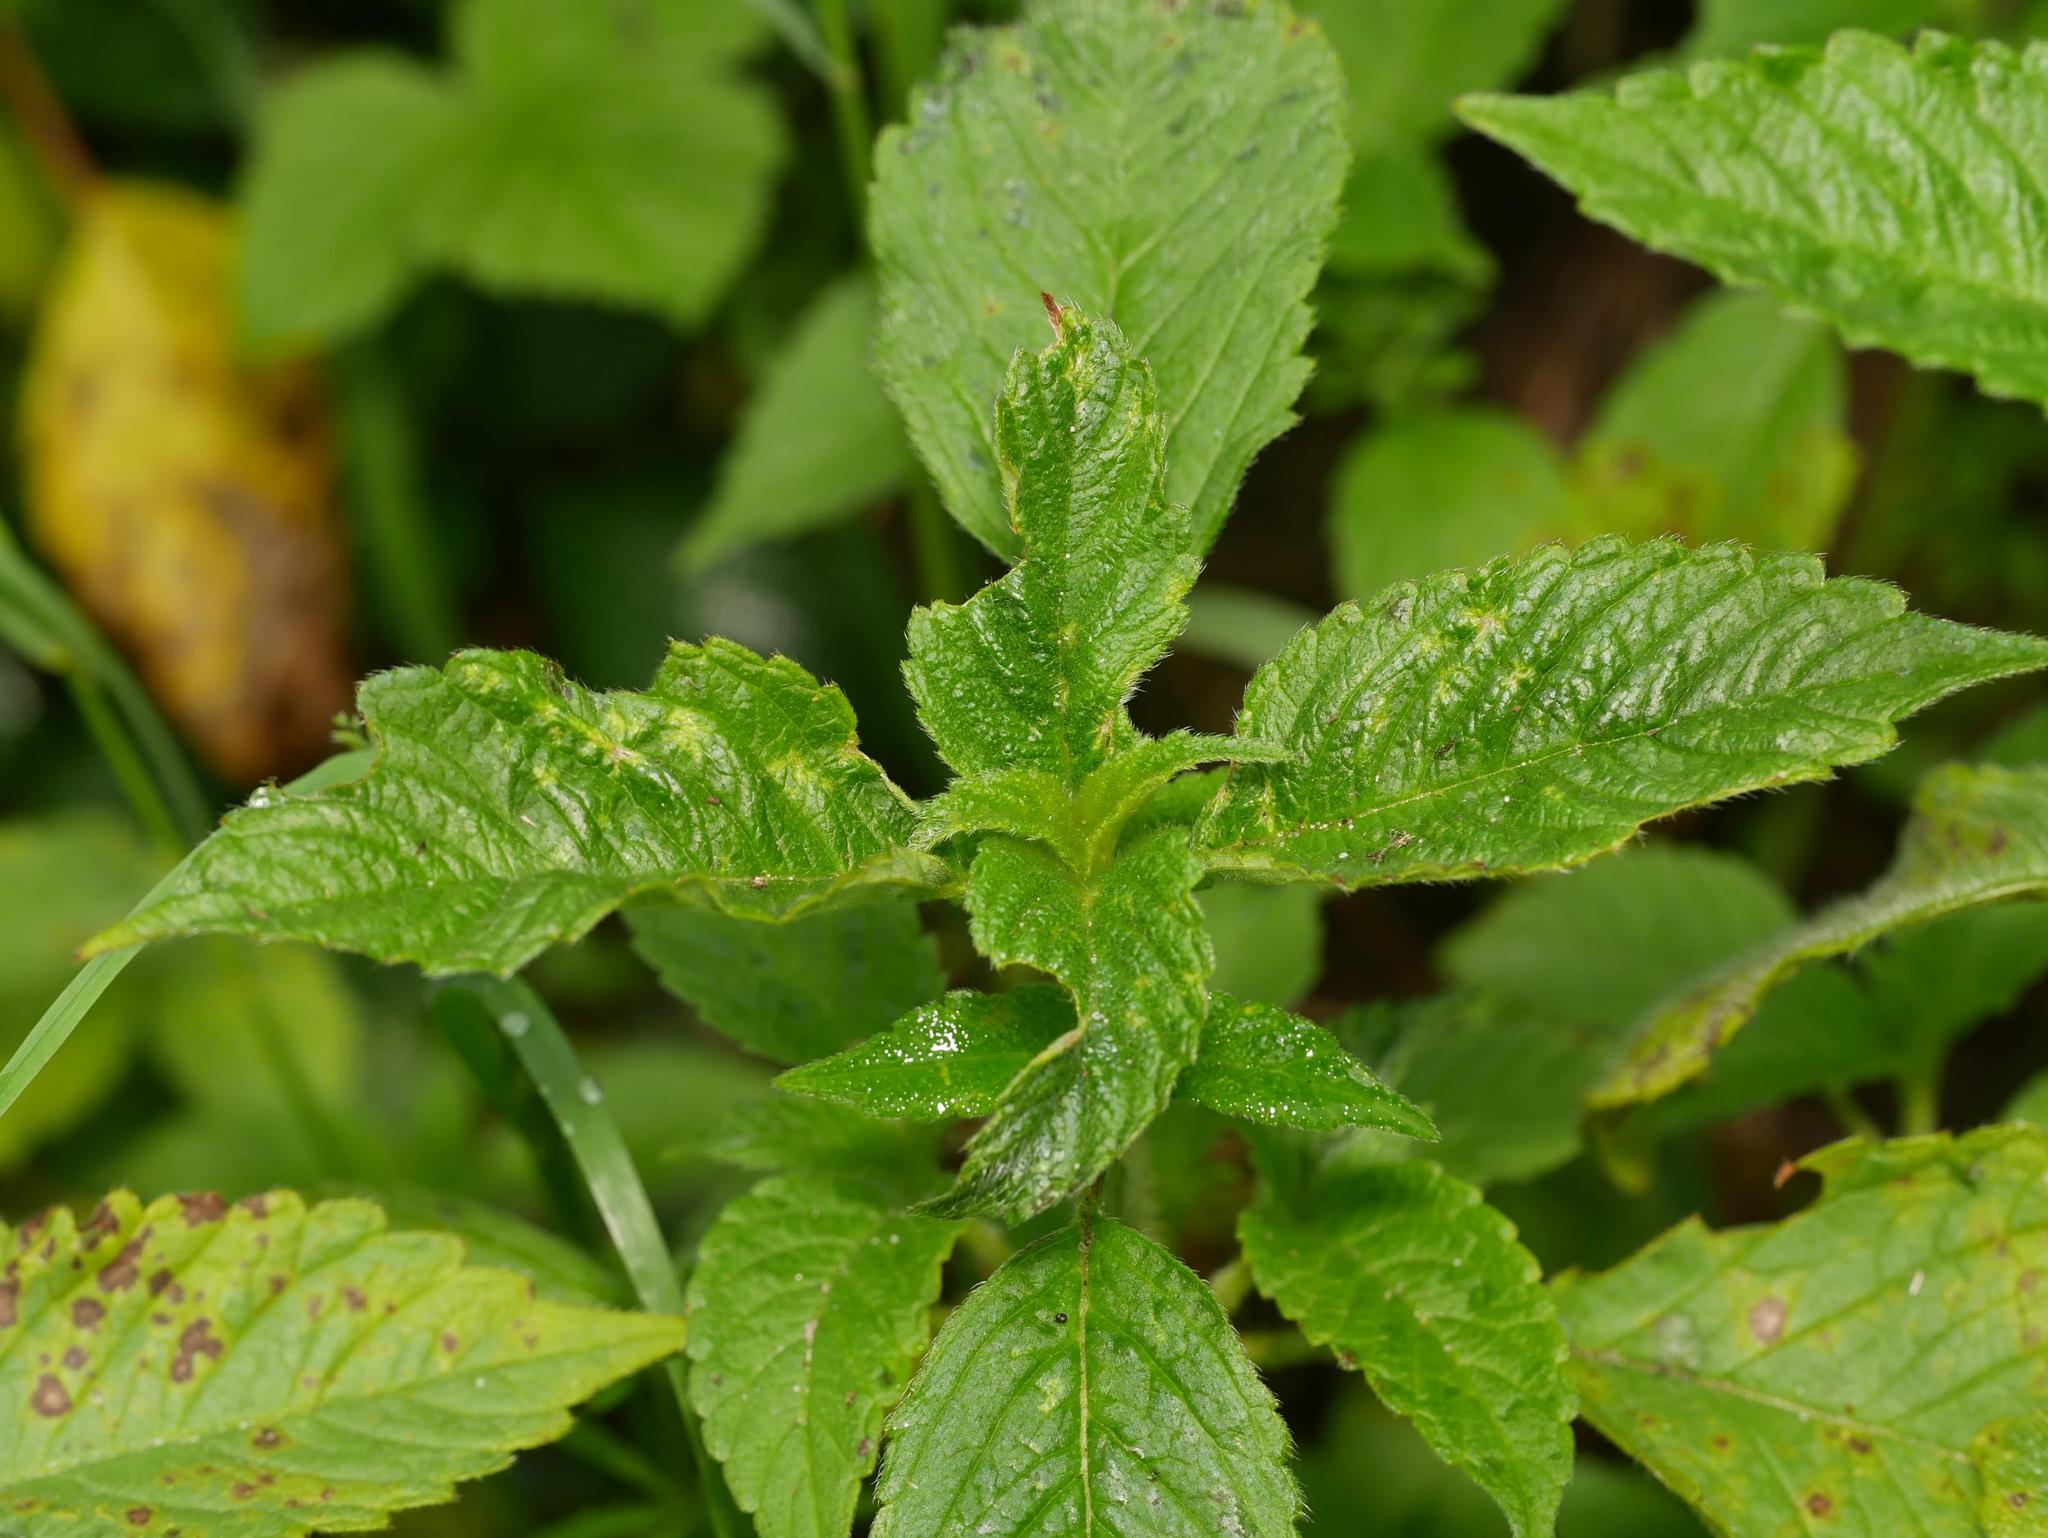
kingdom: Plantae
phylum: Tracheophyta
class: Magnoliopsida
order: Lamiales
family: Lamiaceae
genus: Galeopsis
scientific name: Galeopsis tetrahit
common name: Common hemp-nettle
